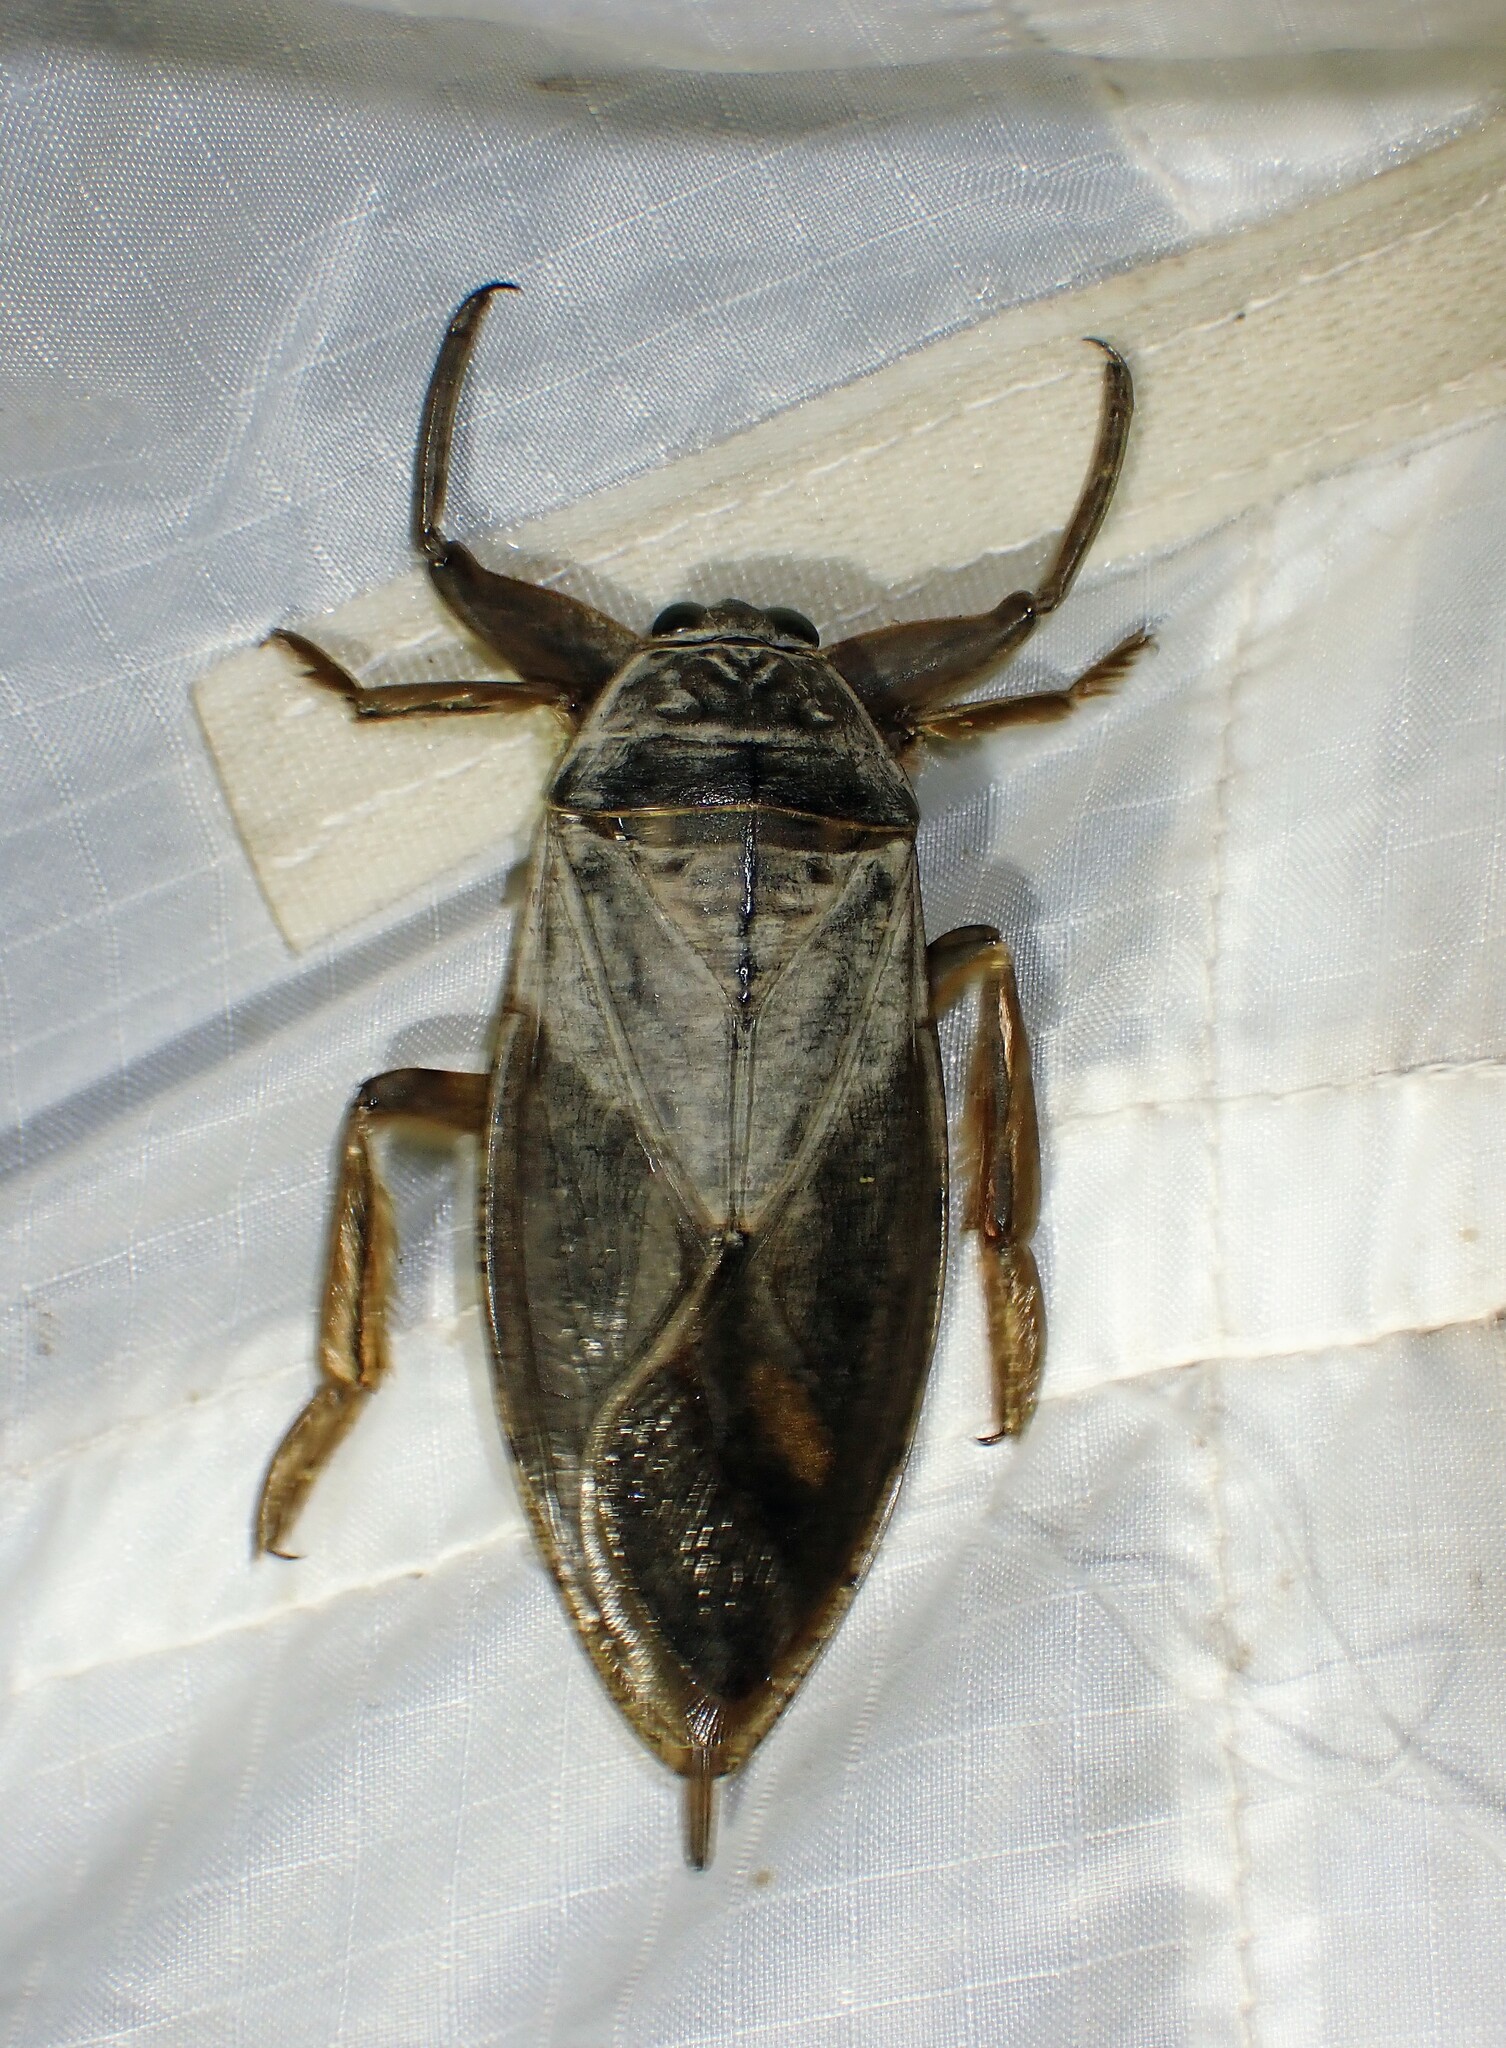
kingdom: Animalia
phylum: Arthropoda
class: Insecta
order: Hemiptera
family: Belostomatidae
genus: Lethocerus
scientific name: Lethocerus americanus
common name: Giant water bug
